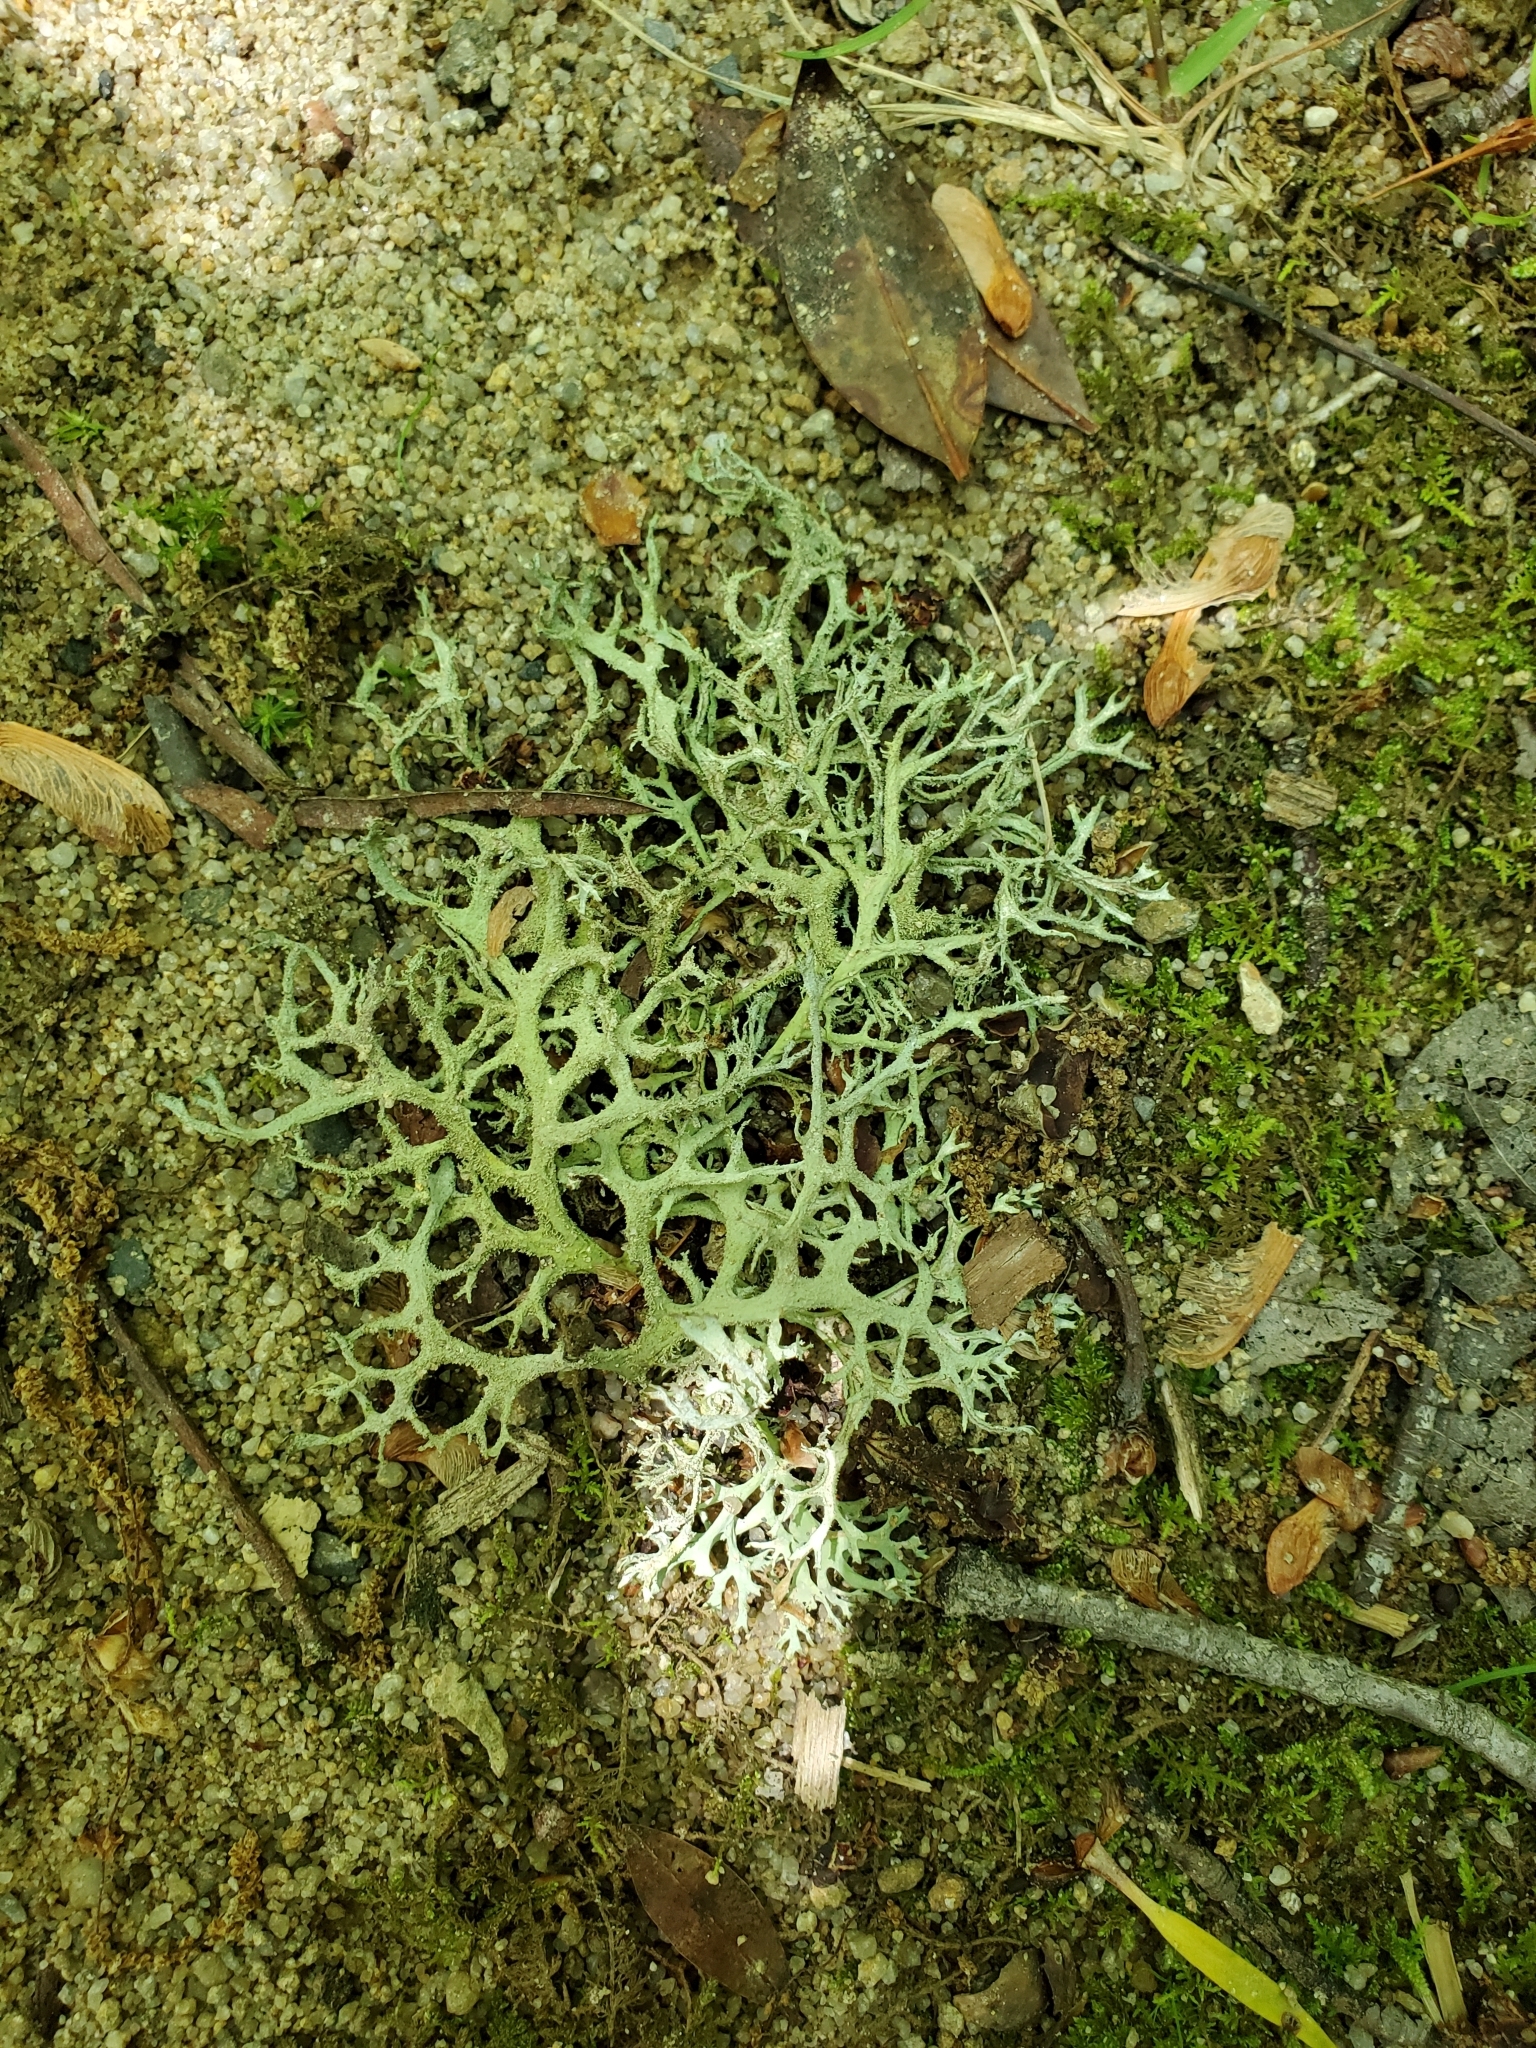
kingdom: Fungi
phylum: Ascomycota
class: Lecanoromycetes
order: Lecanorales
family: Parmeliaceae
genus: Pseudevernia
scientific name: Pseudevernia consocians
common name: Common antler lichen
